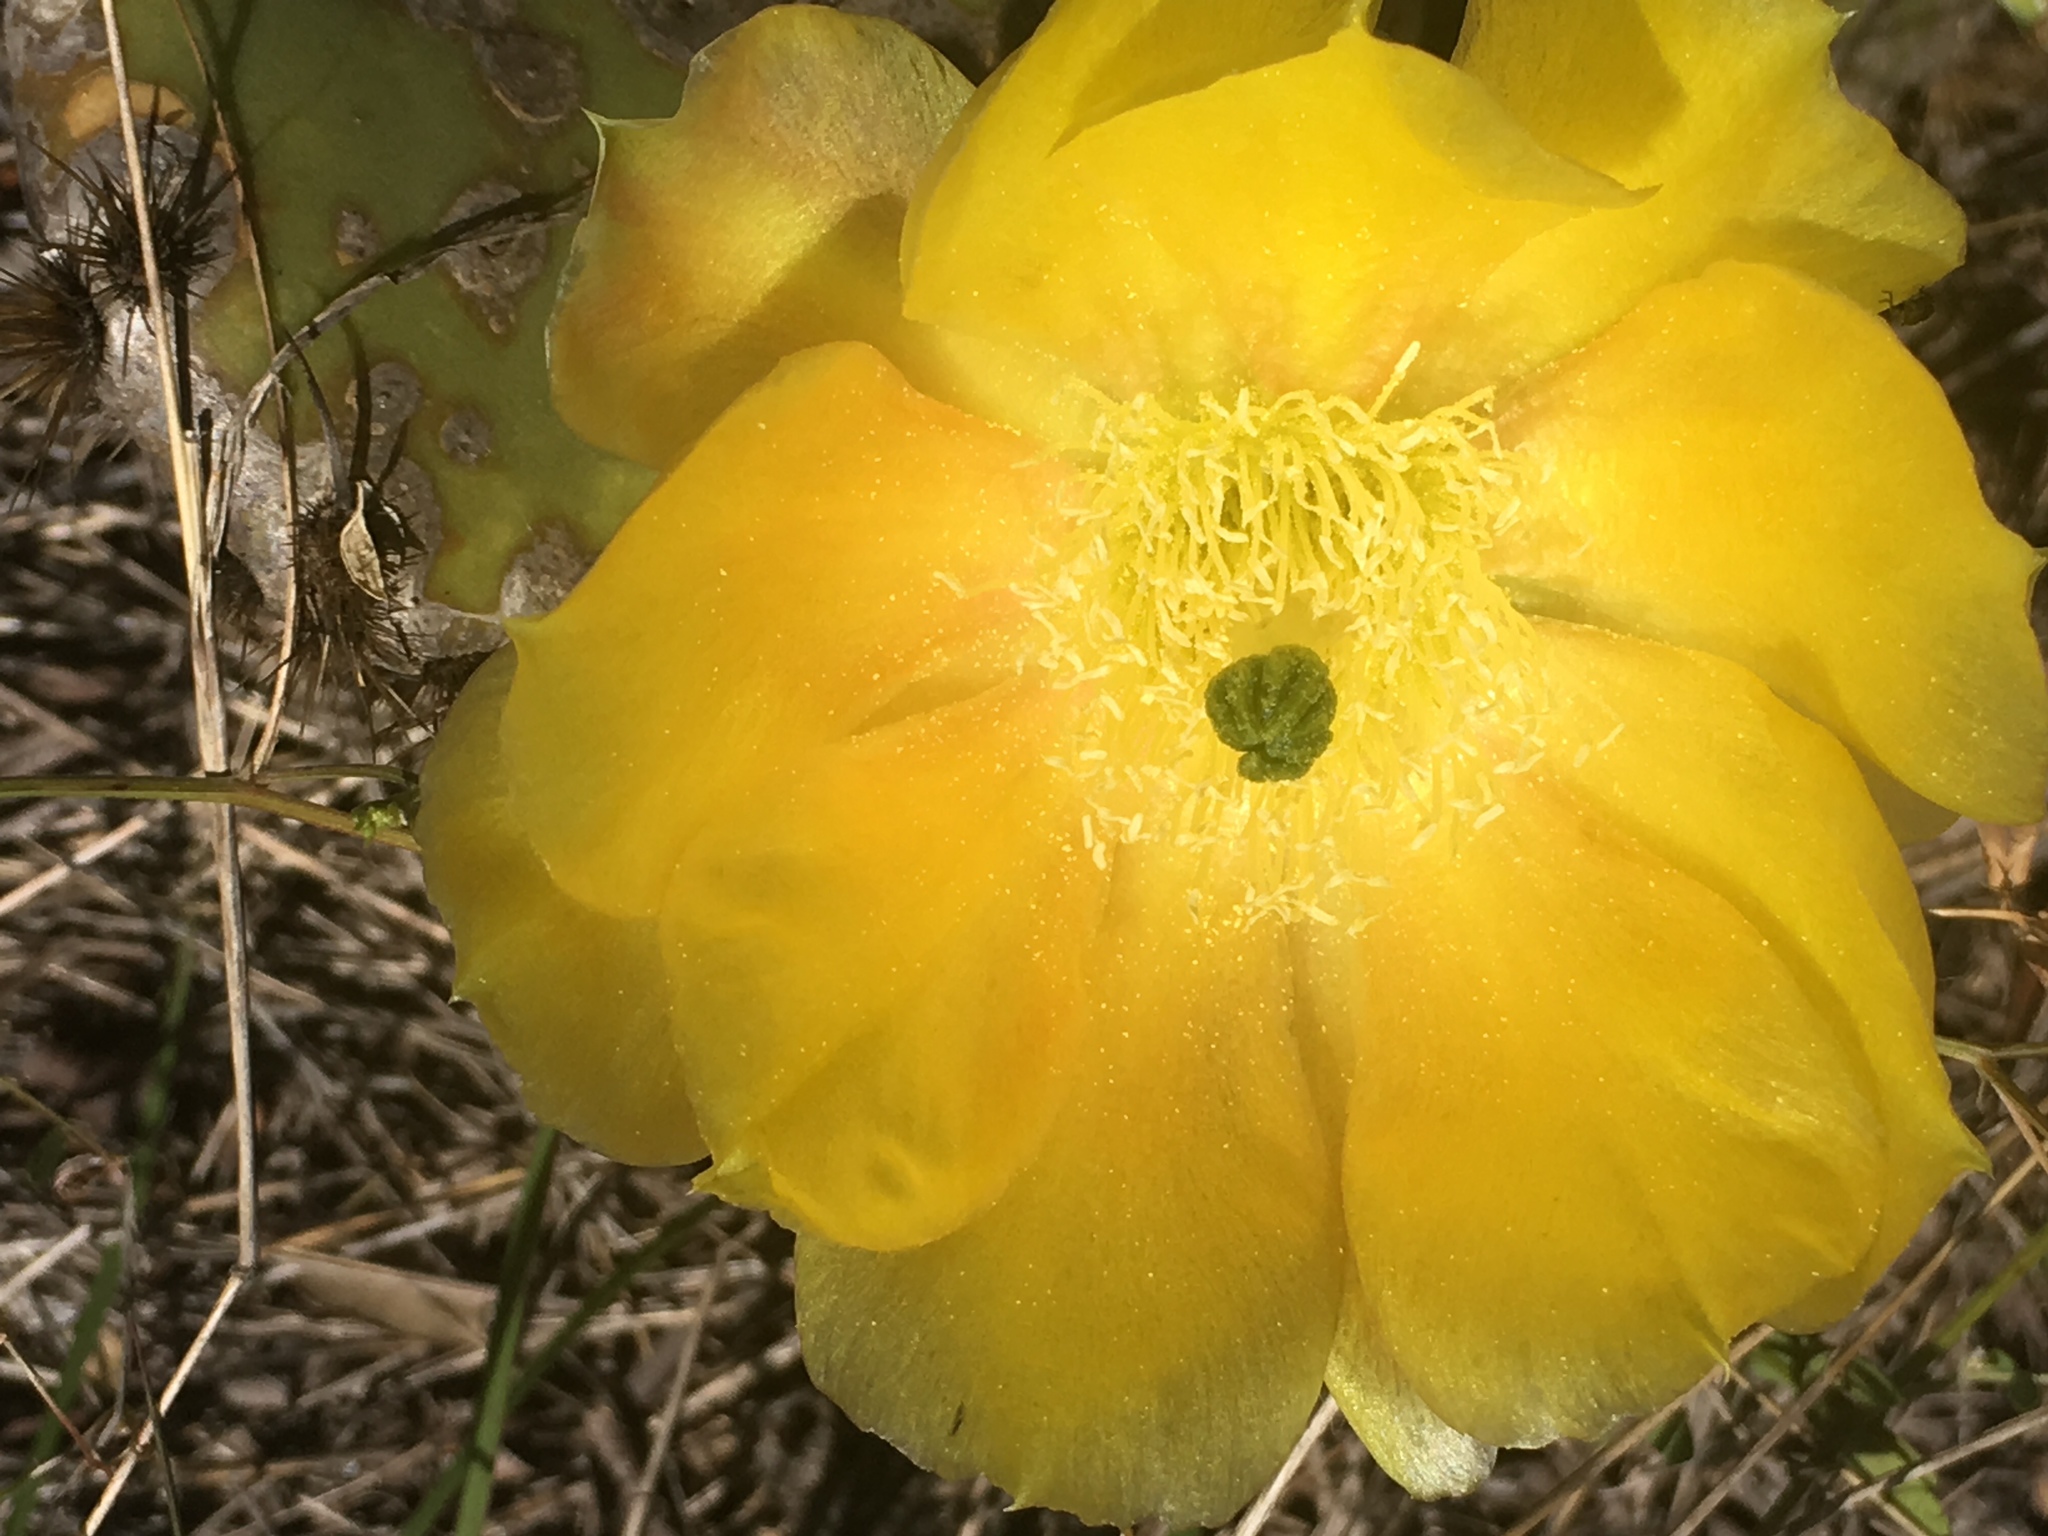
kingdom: Plantae
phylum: Tracheophyta
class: Magnoliopsida
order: Caryophyllales
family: Cactaceae
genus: Opuntia
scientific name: Opuntia engelmannii
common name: Cactus-apple
